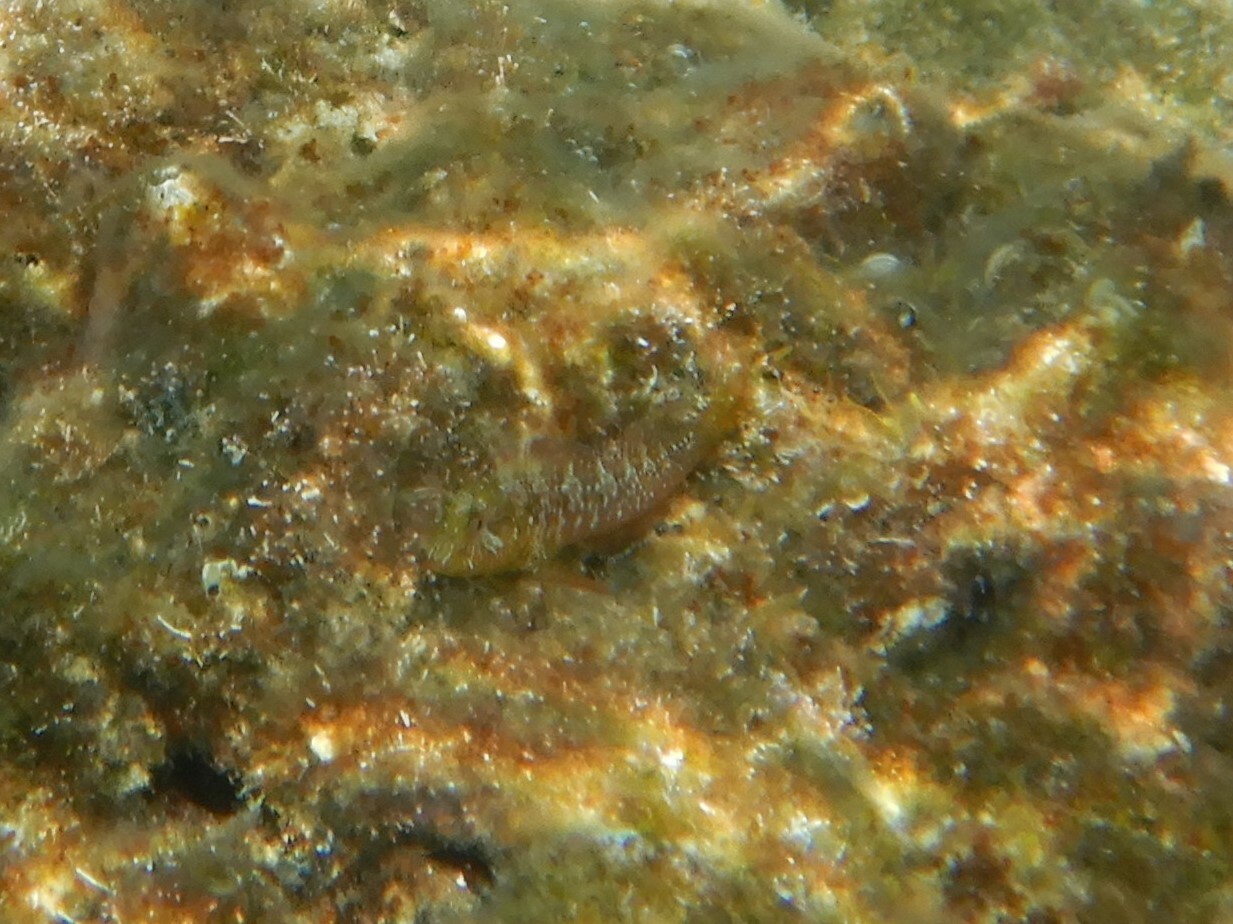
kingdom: Animalia
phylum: Chordata
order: Perciformes
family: Blenniidae
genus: Parablennius
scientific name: Parablennius incognitus
